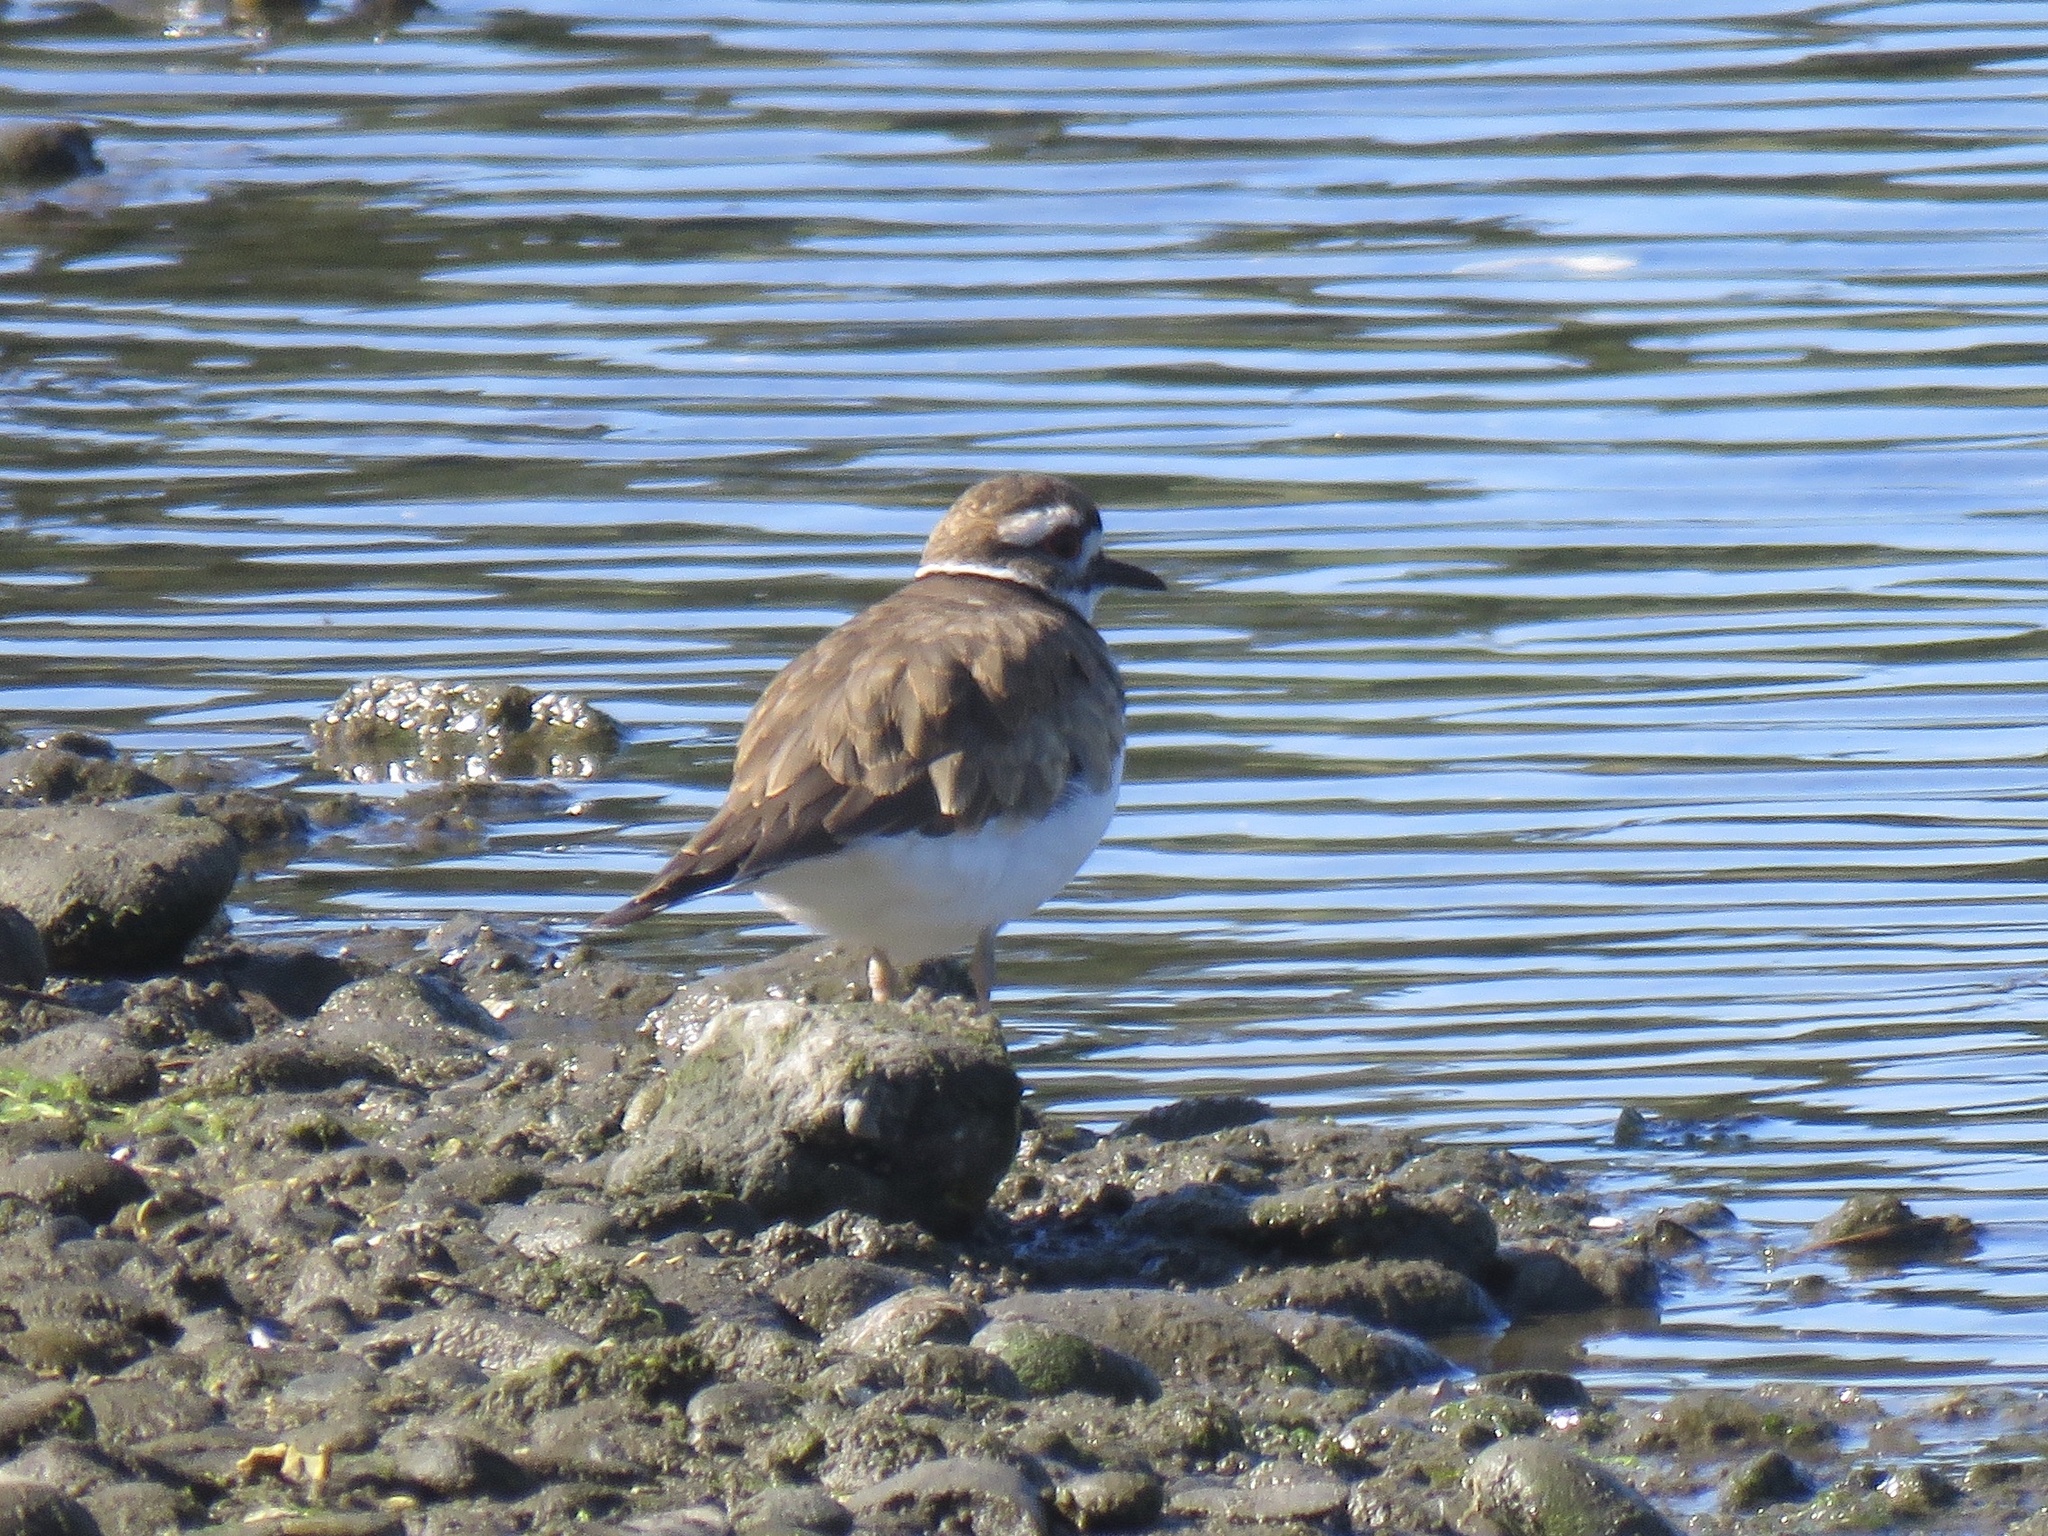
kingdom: Animalia
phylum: Chordata
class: Aves
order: Charadriiformes
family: Charadriidae
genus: Charadrius
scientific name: Charadrius vociferus
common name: Killdeer
